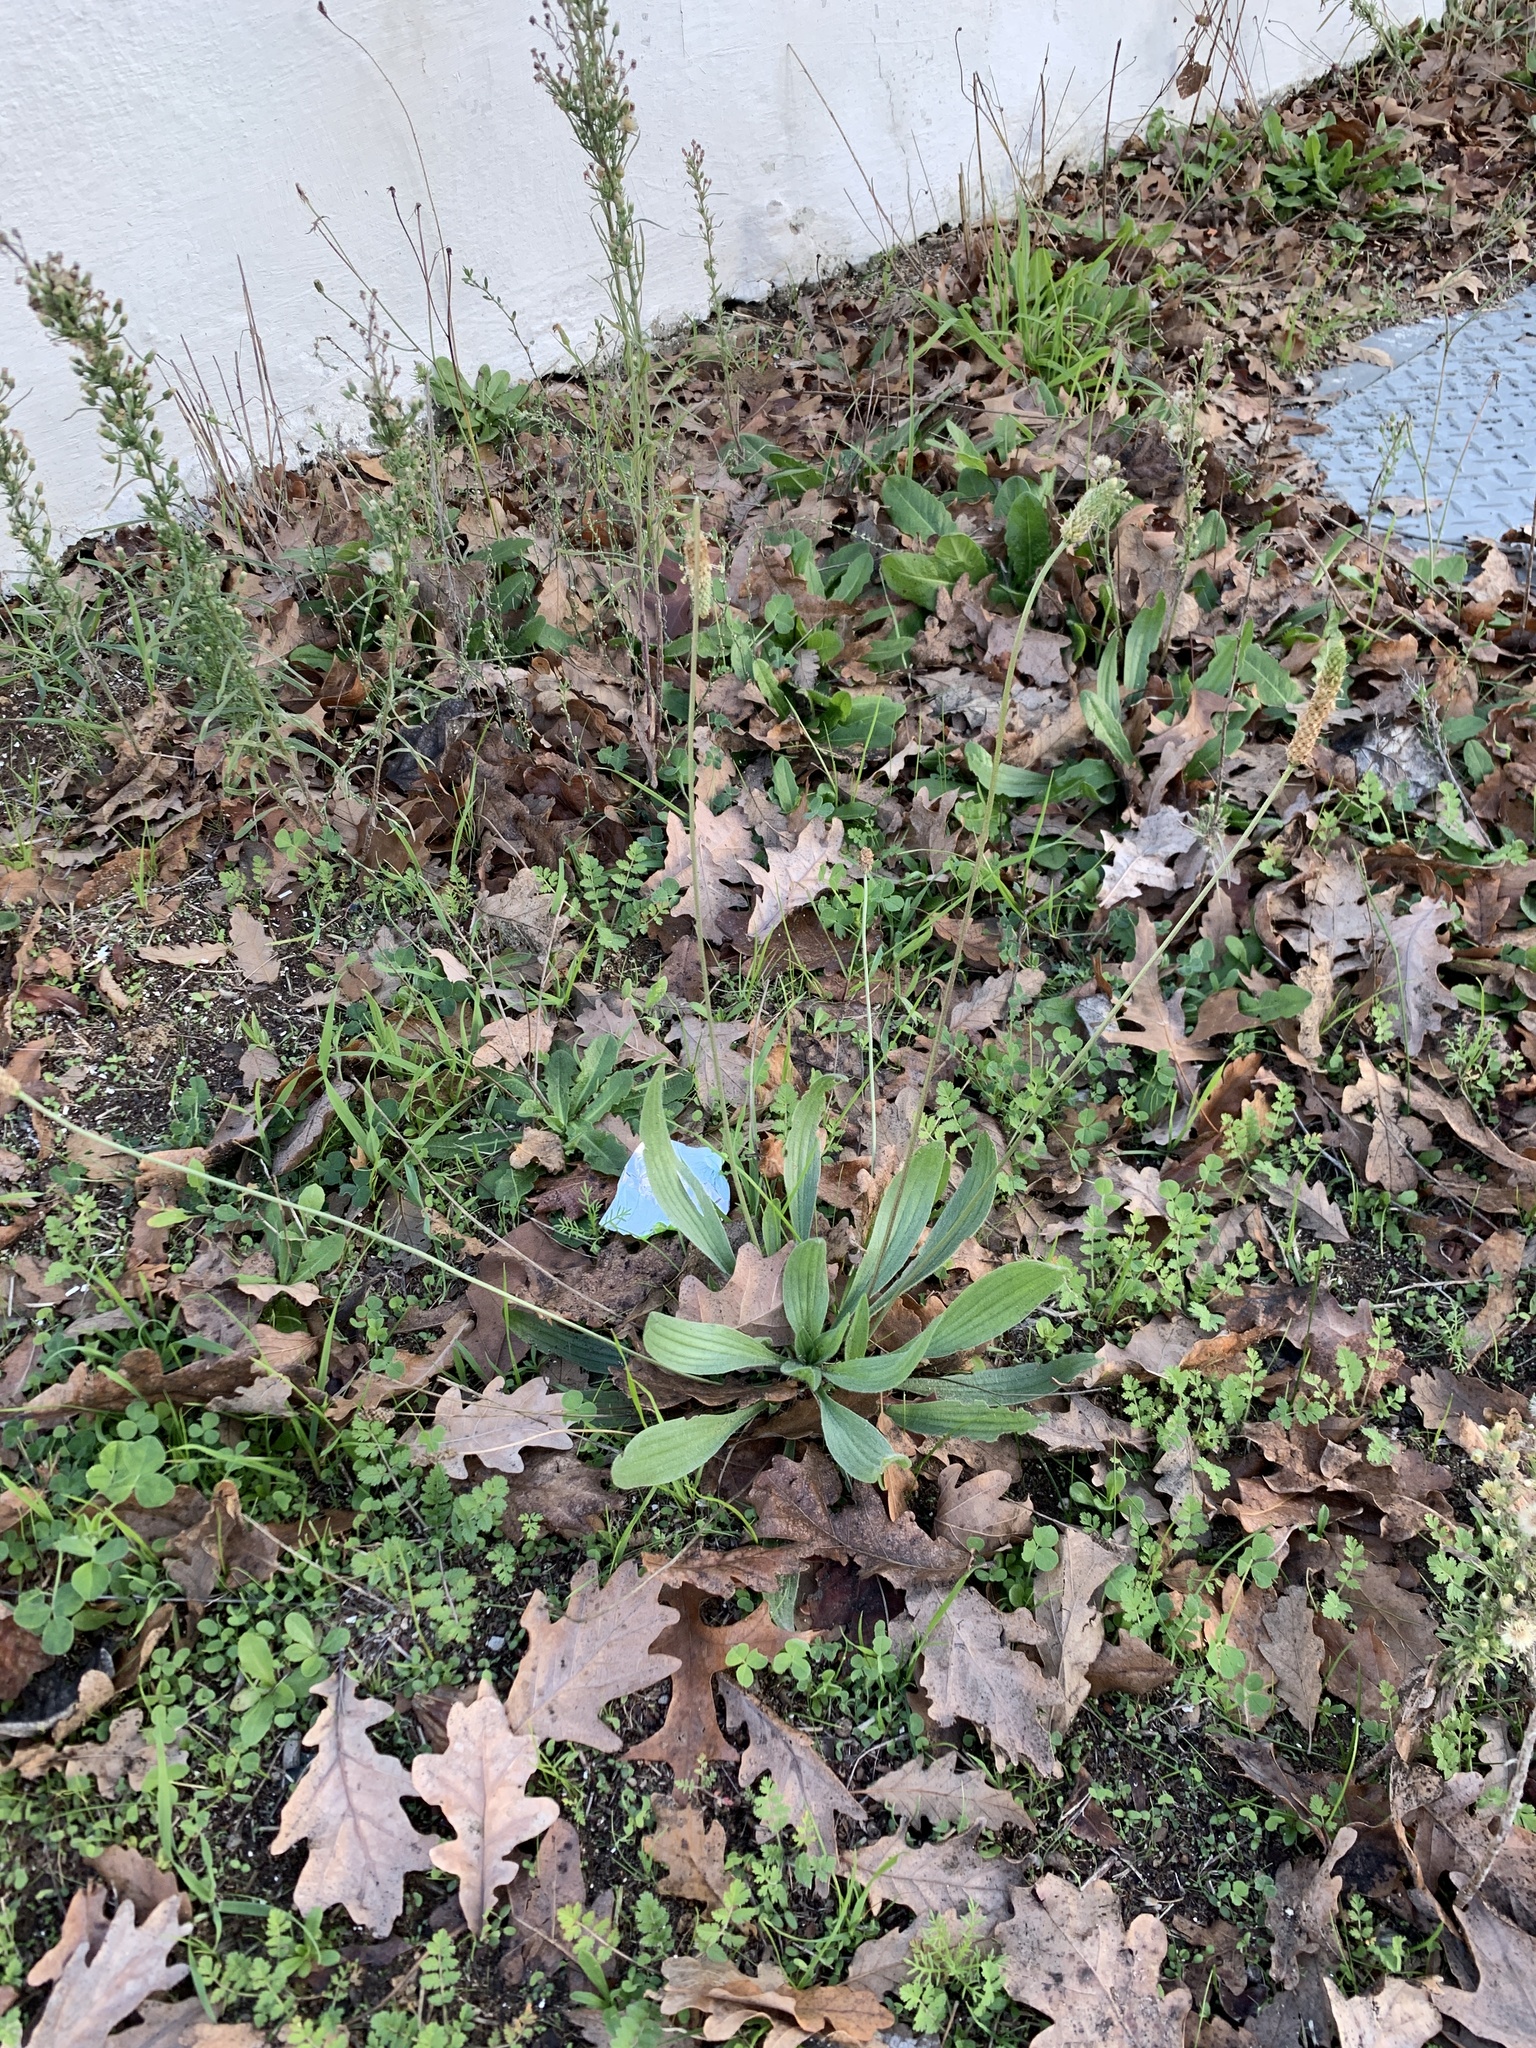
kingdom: Plantae
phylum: Tracheophyta
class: Magnoliopsida
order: Lamiales
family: Plantaginaceae
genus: Plantago
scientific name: Plantago lanceolata
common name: Ribwort plantain
